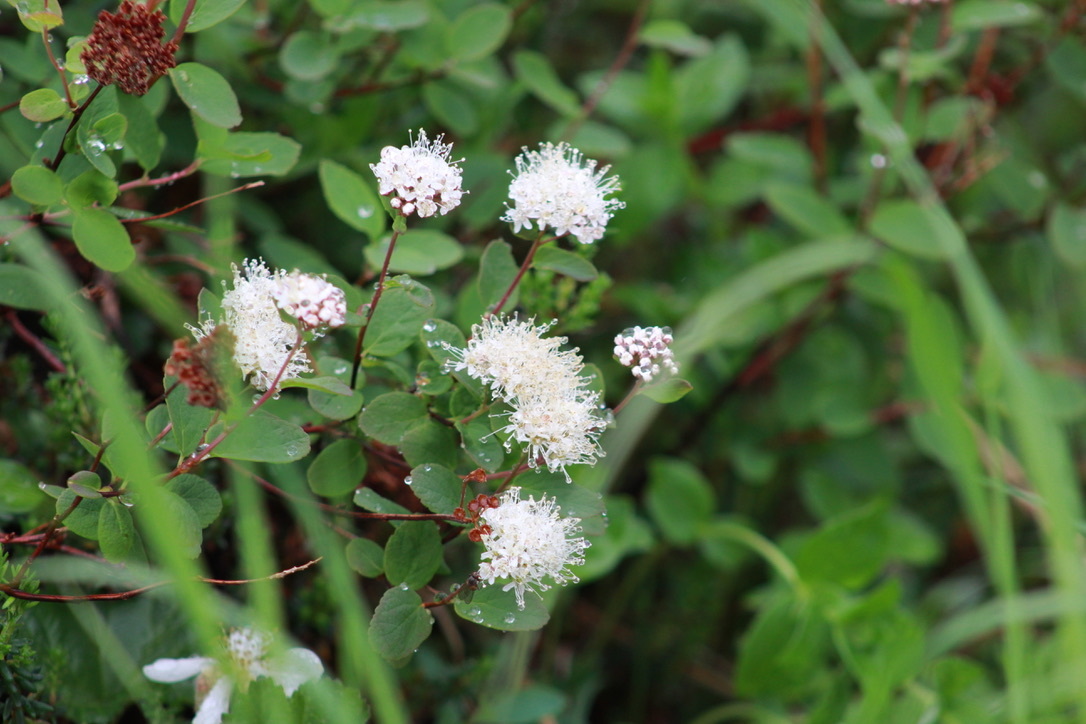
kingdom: Plantae
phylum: Tracheophyta
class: Magnoliopsida
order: Rosales
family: Rosaceae
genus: Spiraea
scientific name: Spiraea stevenii
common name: Steven's meadowsweet
